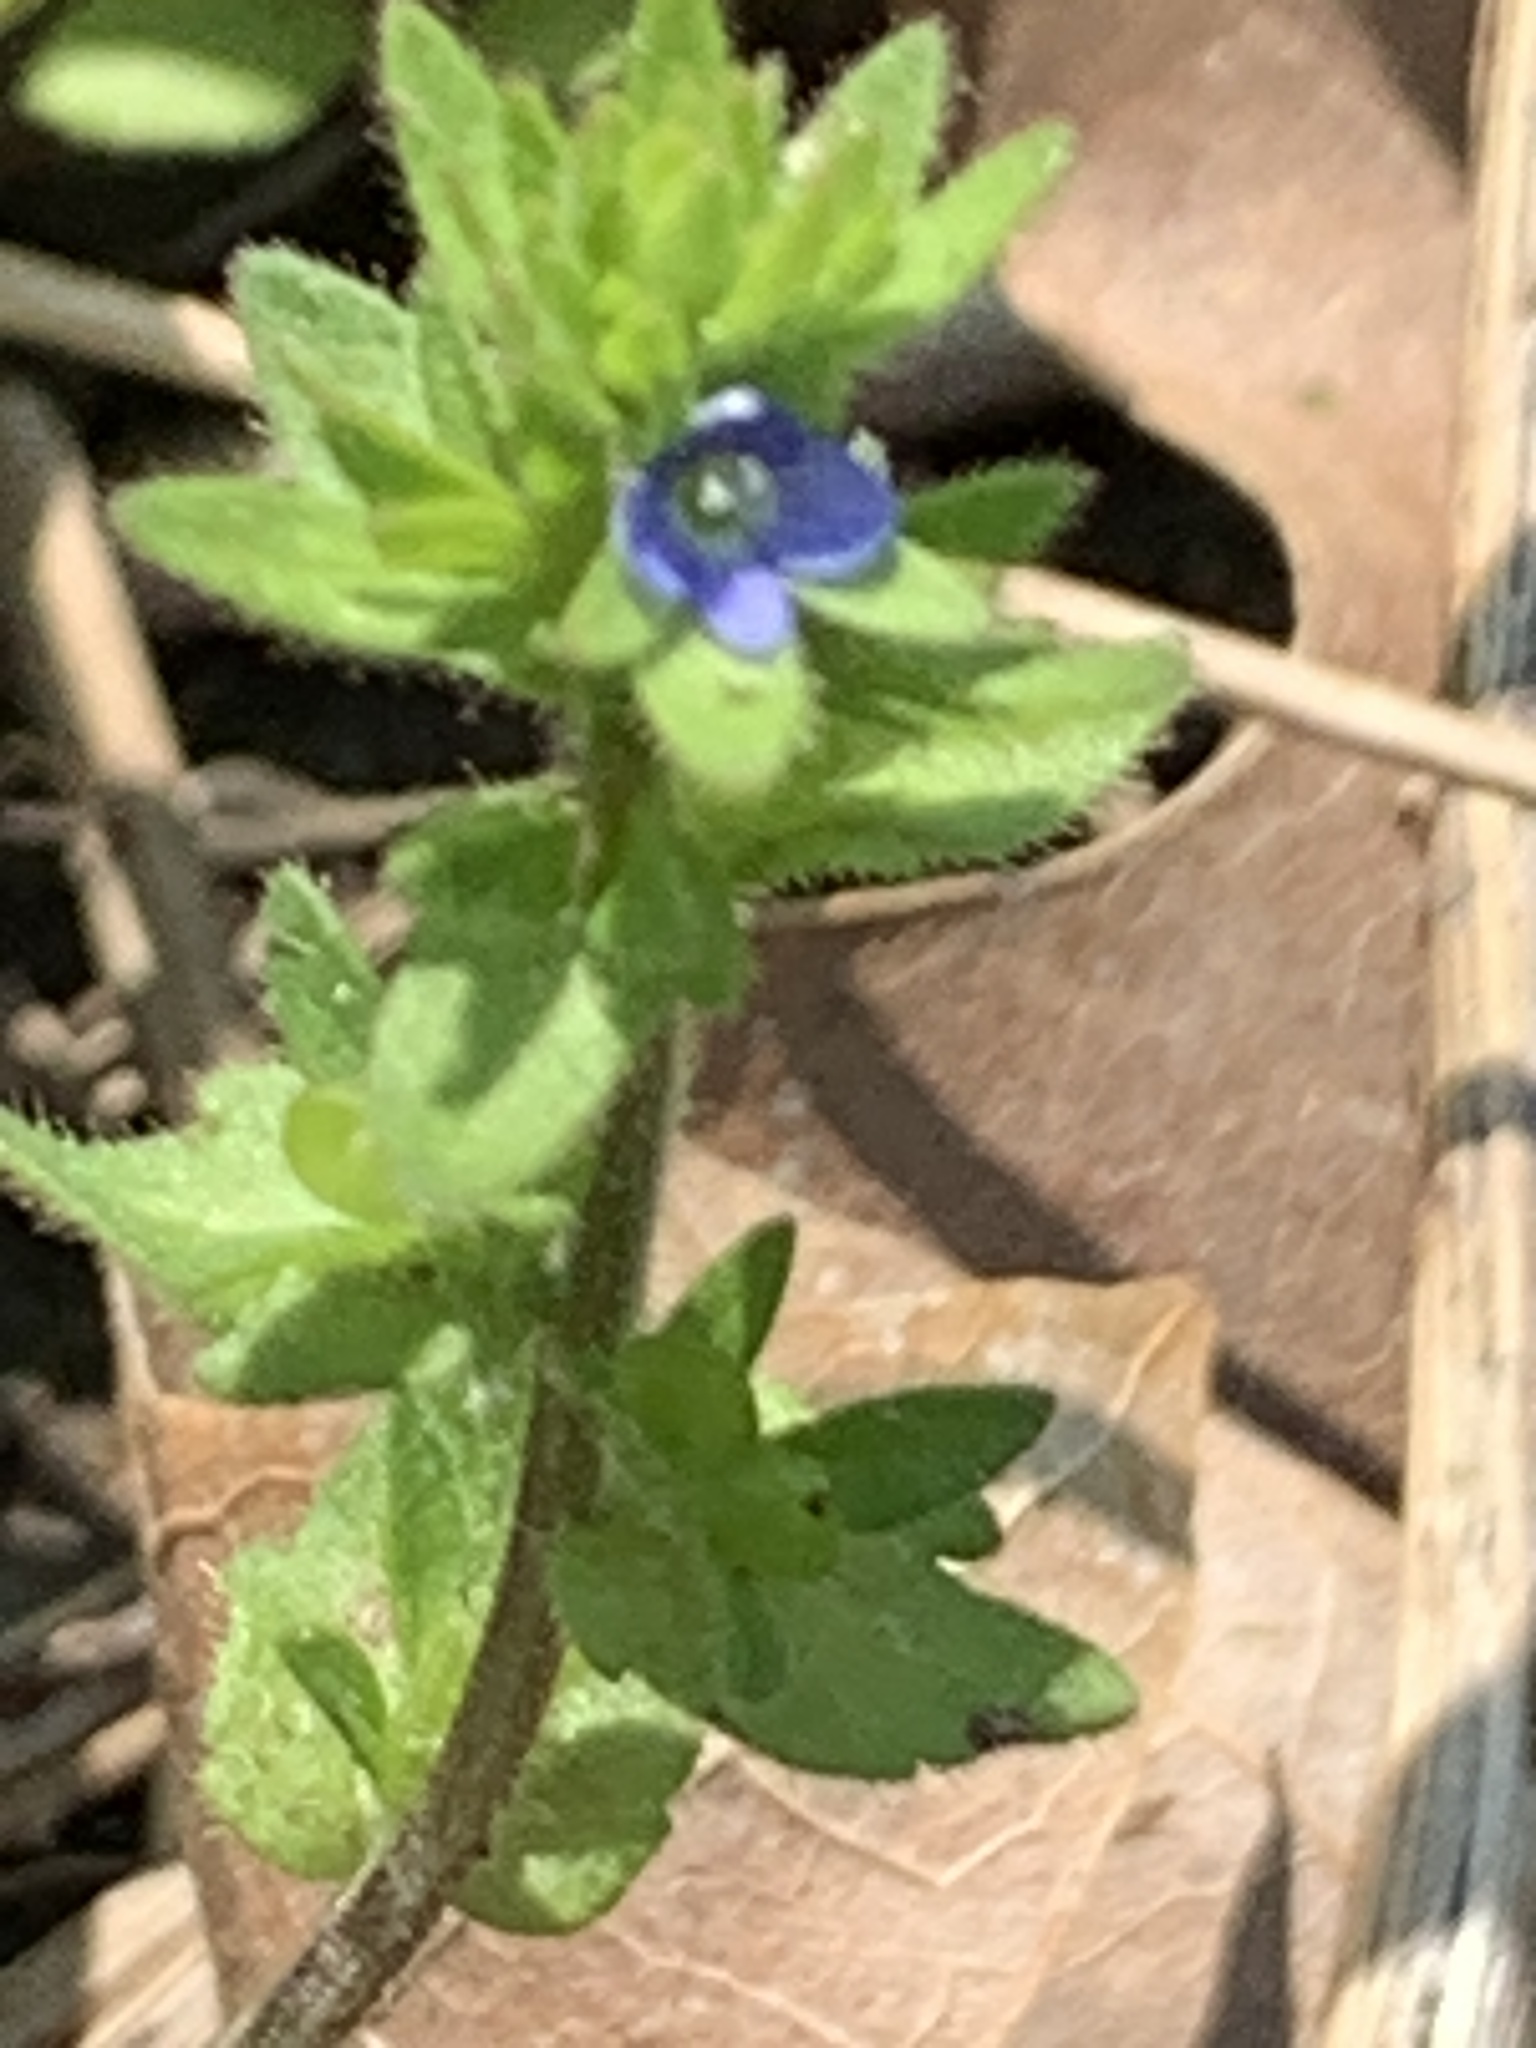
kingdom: Plantae
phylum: Tracheophyta
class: Magnoliopsida
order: Lamiales
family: Plantaginaceae
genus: Veronica
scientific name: Veronica arvensis
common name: Corn speedwell
